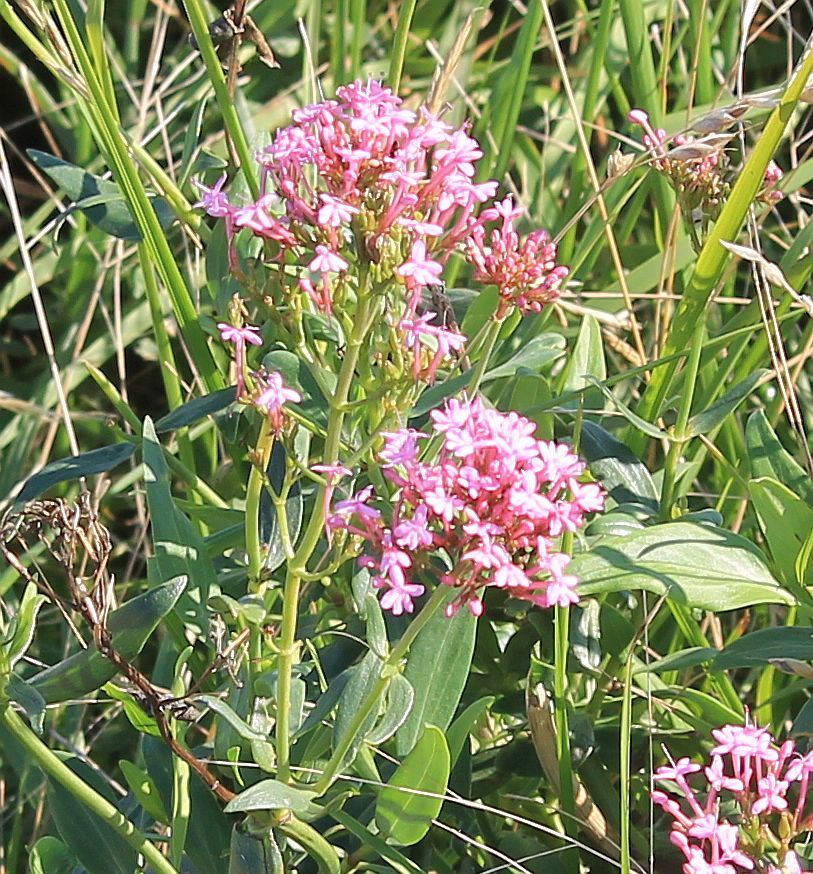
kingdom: Plantae
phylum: Tracheophyta
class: Magnoliopsida
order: Dipsacales
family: Caprifoliaceae
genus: Centranthus
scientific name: Centranthus ruber
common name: Red valerian
